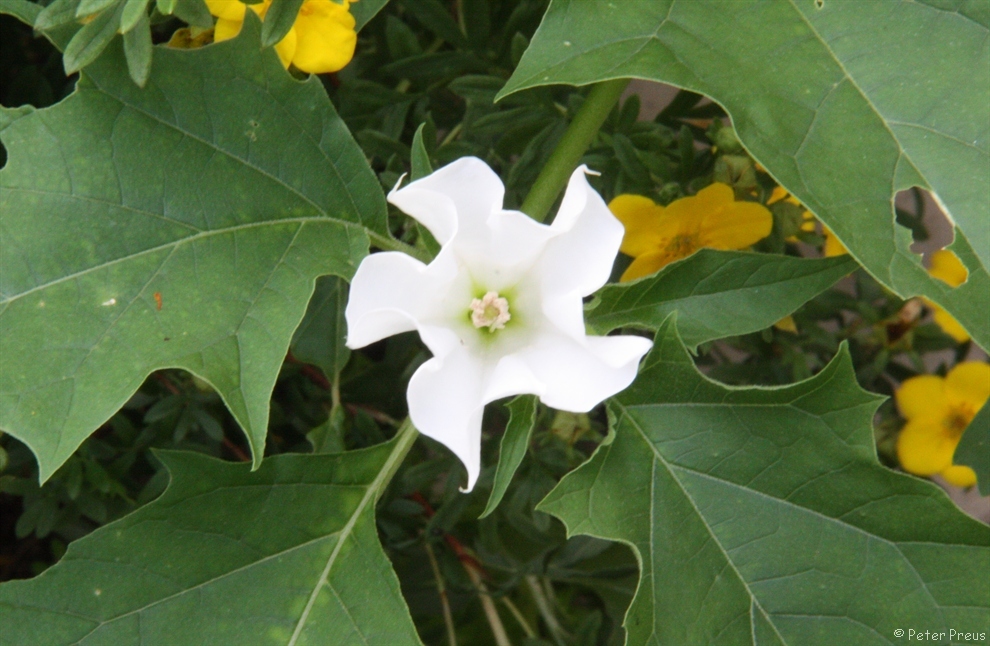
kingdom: Plantae
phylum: Tracheophyta
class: Magnoliopsida
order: Solanales
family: Solanaceae
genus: Datura
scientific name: Datura stramonium
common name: Thorn-apple
